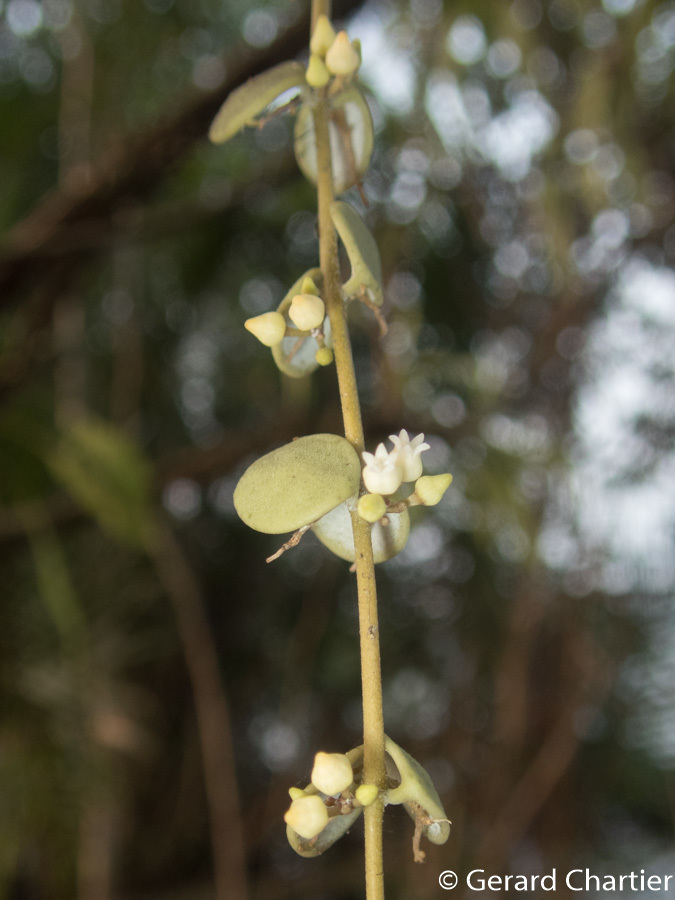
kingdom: Plantae
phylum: Tracheophyta
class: Magnoliopsida
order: Gentianales
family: Apocynaceae
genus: Dischidia
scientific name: Dischidia nummularia
